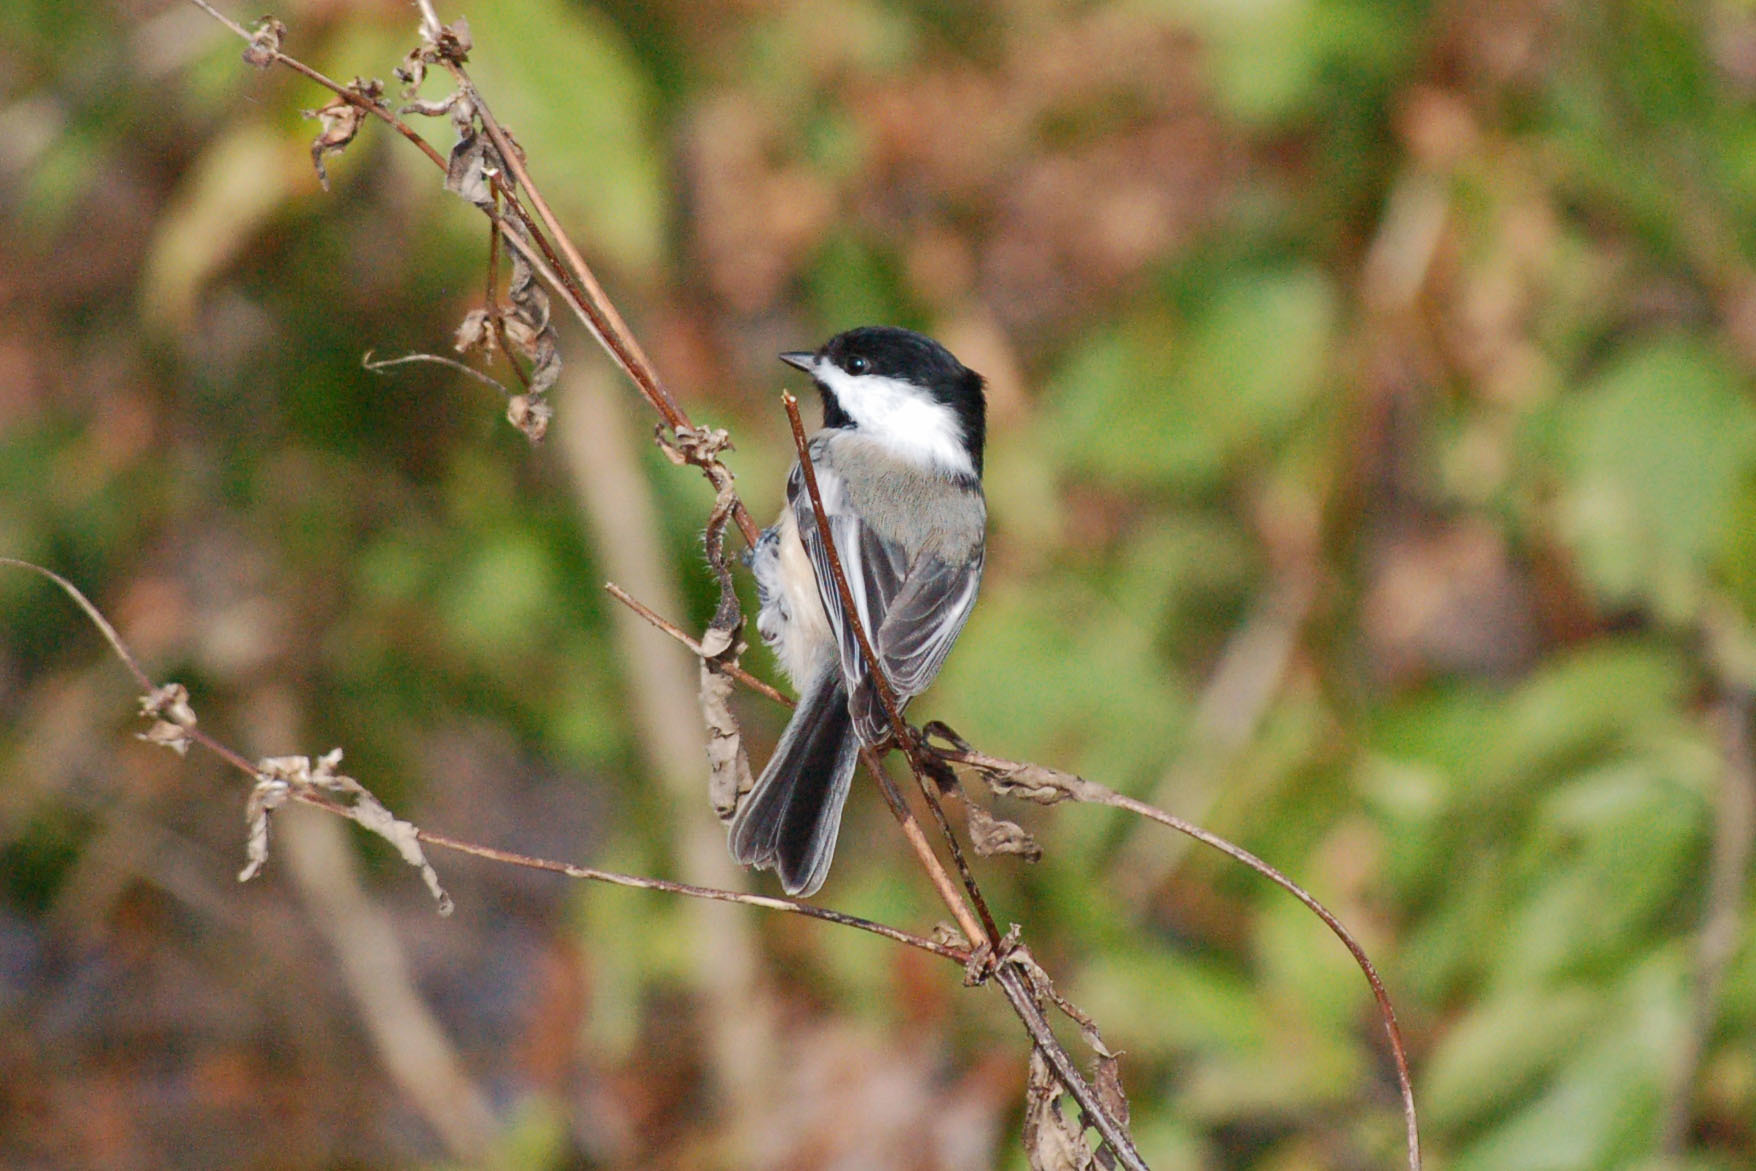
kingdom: Animalia
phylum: Chordata
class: Aves
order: Passeriformes
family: Paridae
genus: Poecile
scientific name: Poecile atricapillus
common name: Black-capped chickadee
